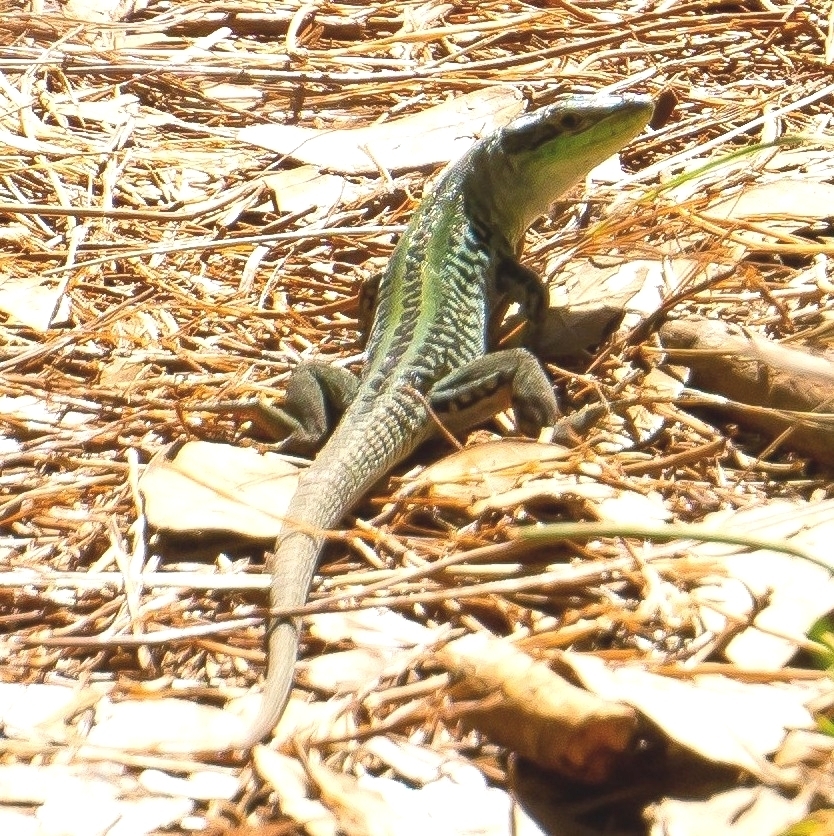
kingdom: Animalia
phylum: Chordata
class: Squamata
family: Lacertidae
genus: Podarcis
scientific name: Podarcis siculus
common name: Italian wall lizard
